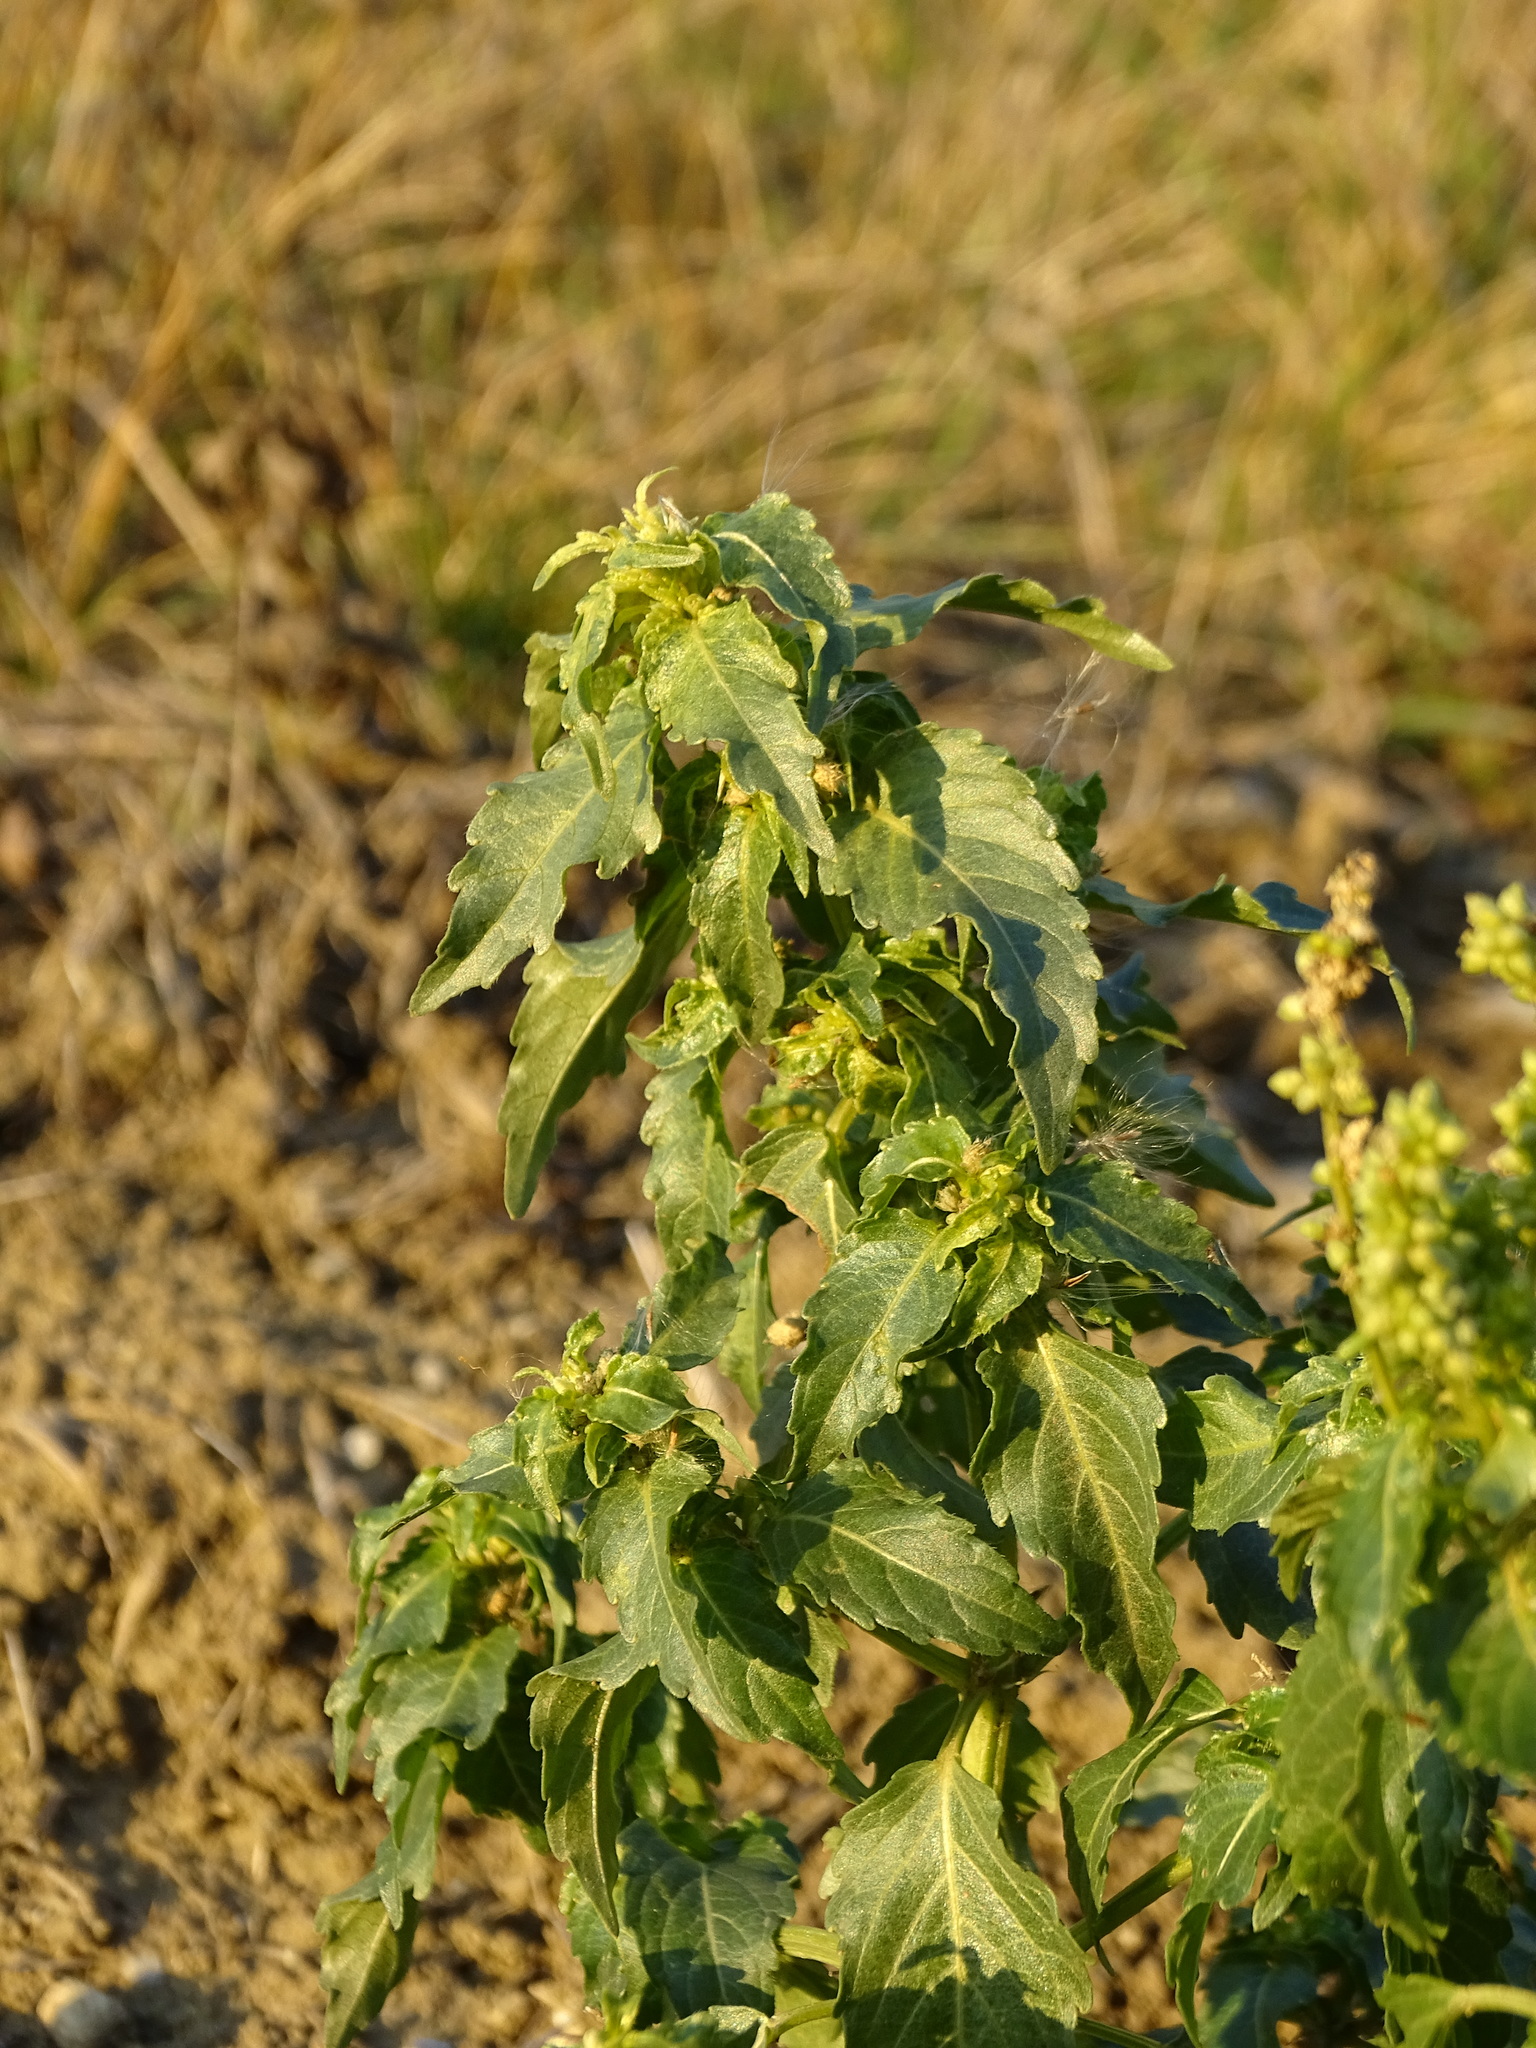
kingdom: Plantae
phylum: Tracheophyta
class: Magnoliopsida
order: Malpighiales
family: Euphorbiaceae
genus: Mercurialis
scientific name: Mercurialis annua
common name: Annual mercury
